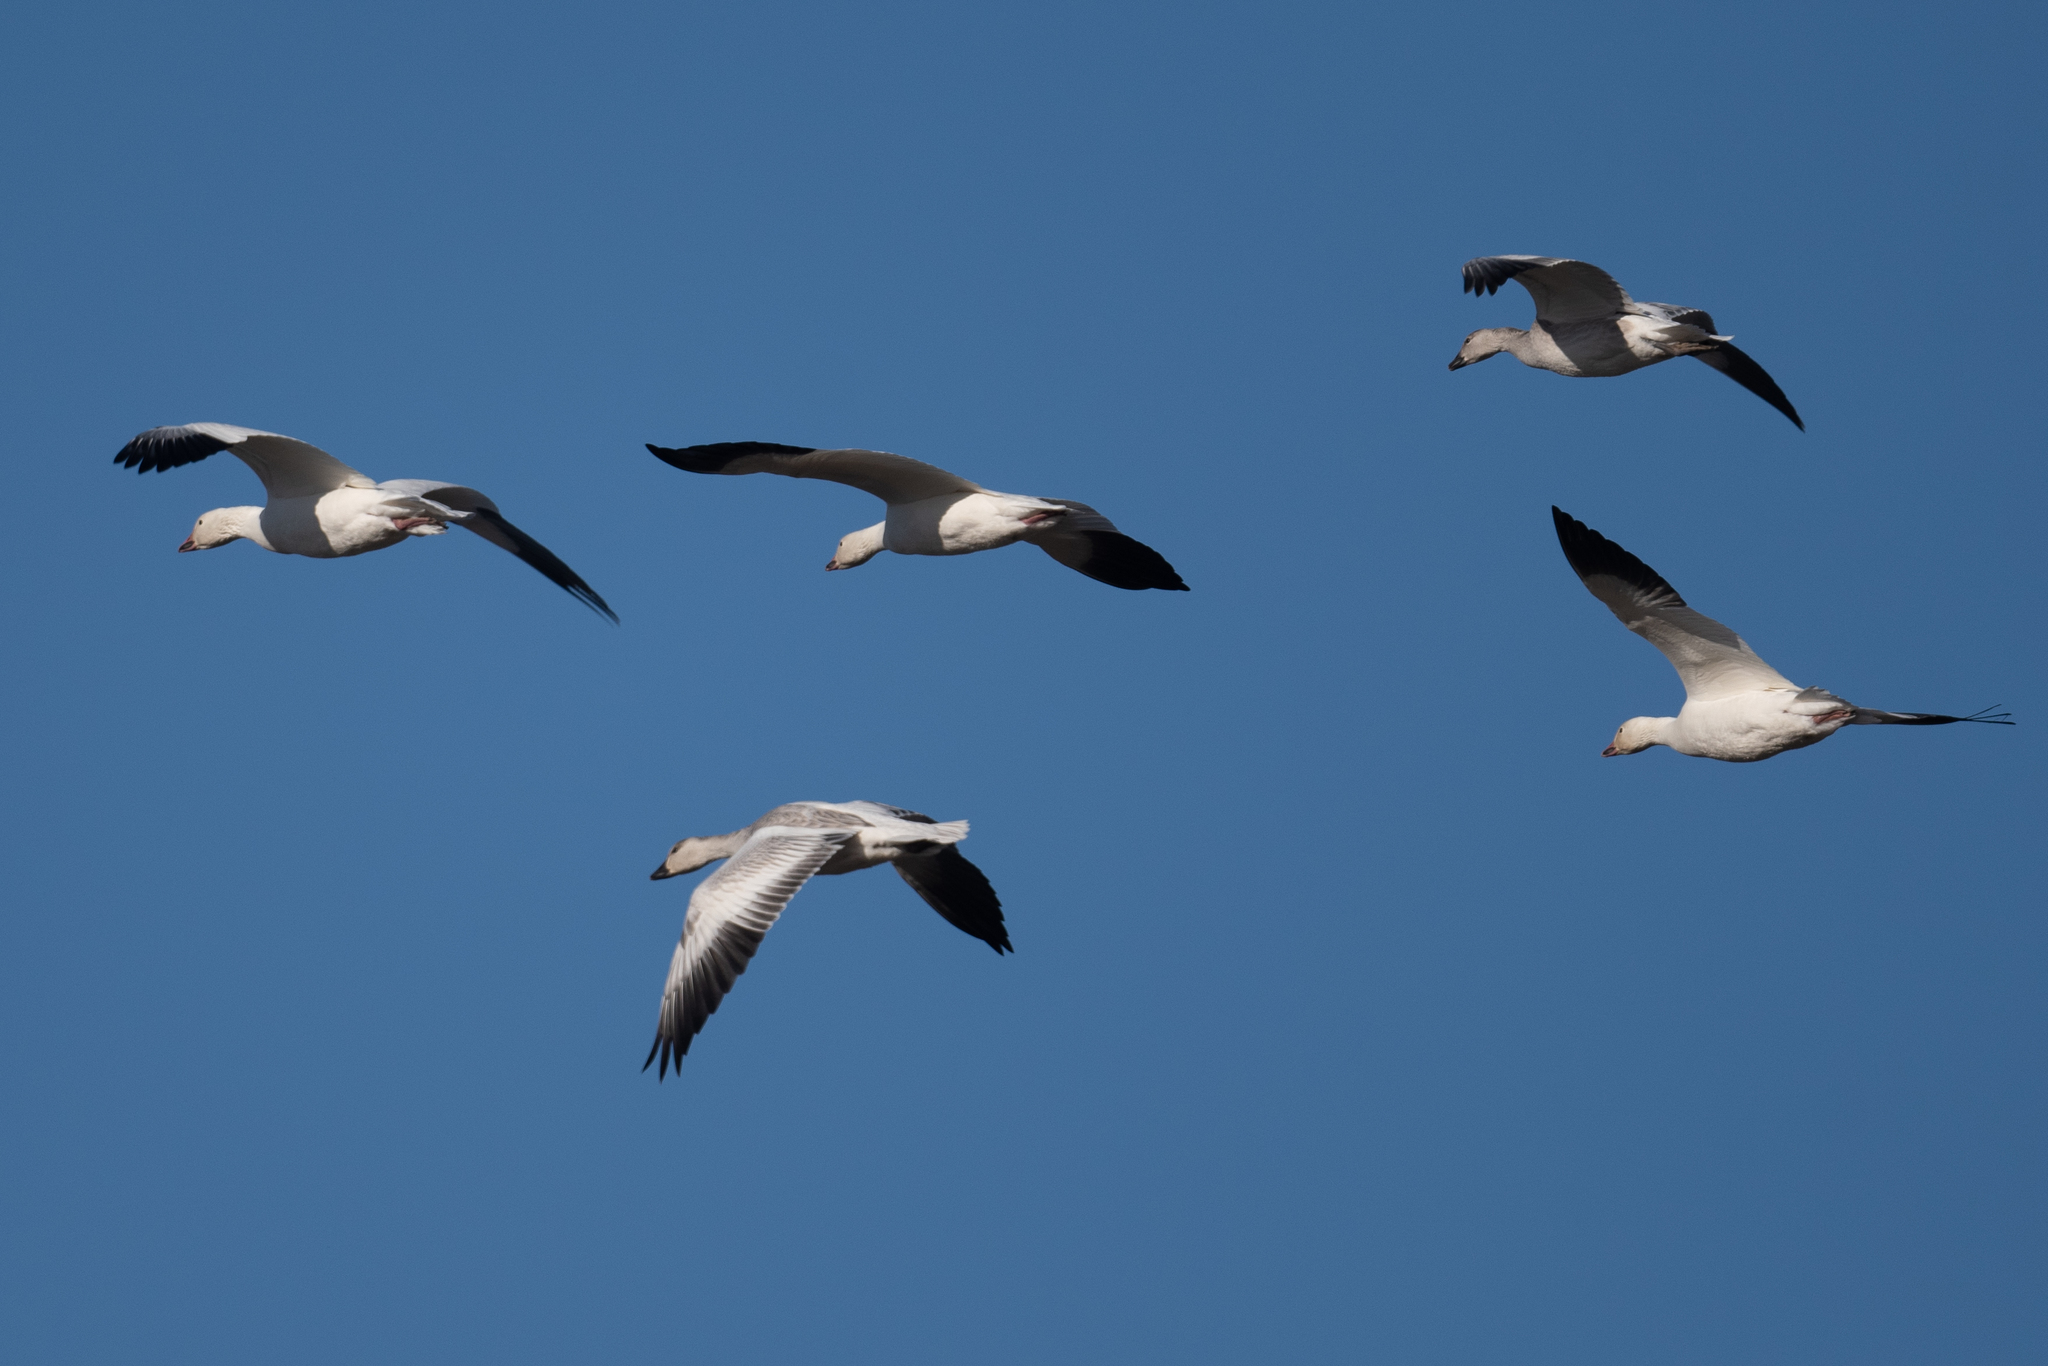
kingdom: Animalia
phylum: Chordata
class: Aves
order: Anseriformes
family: Anatidae
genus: Anser
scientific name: Anser caerulescens
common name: Snow goose
